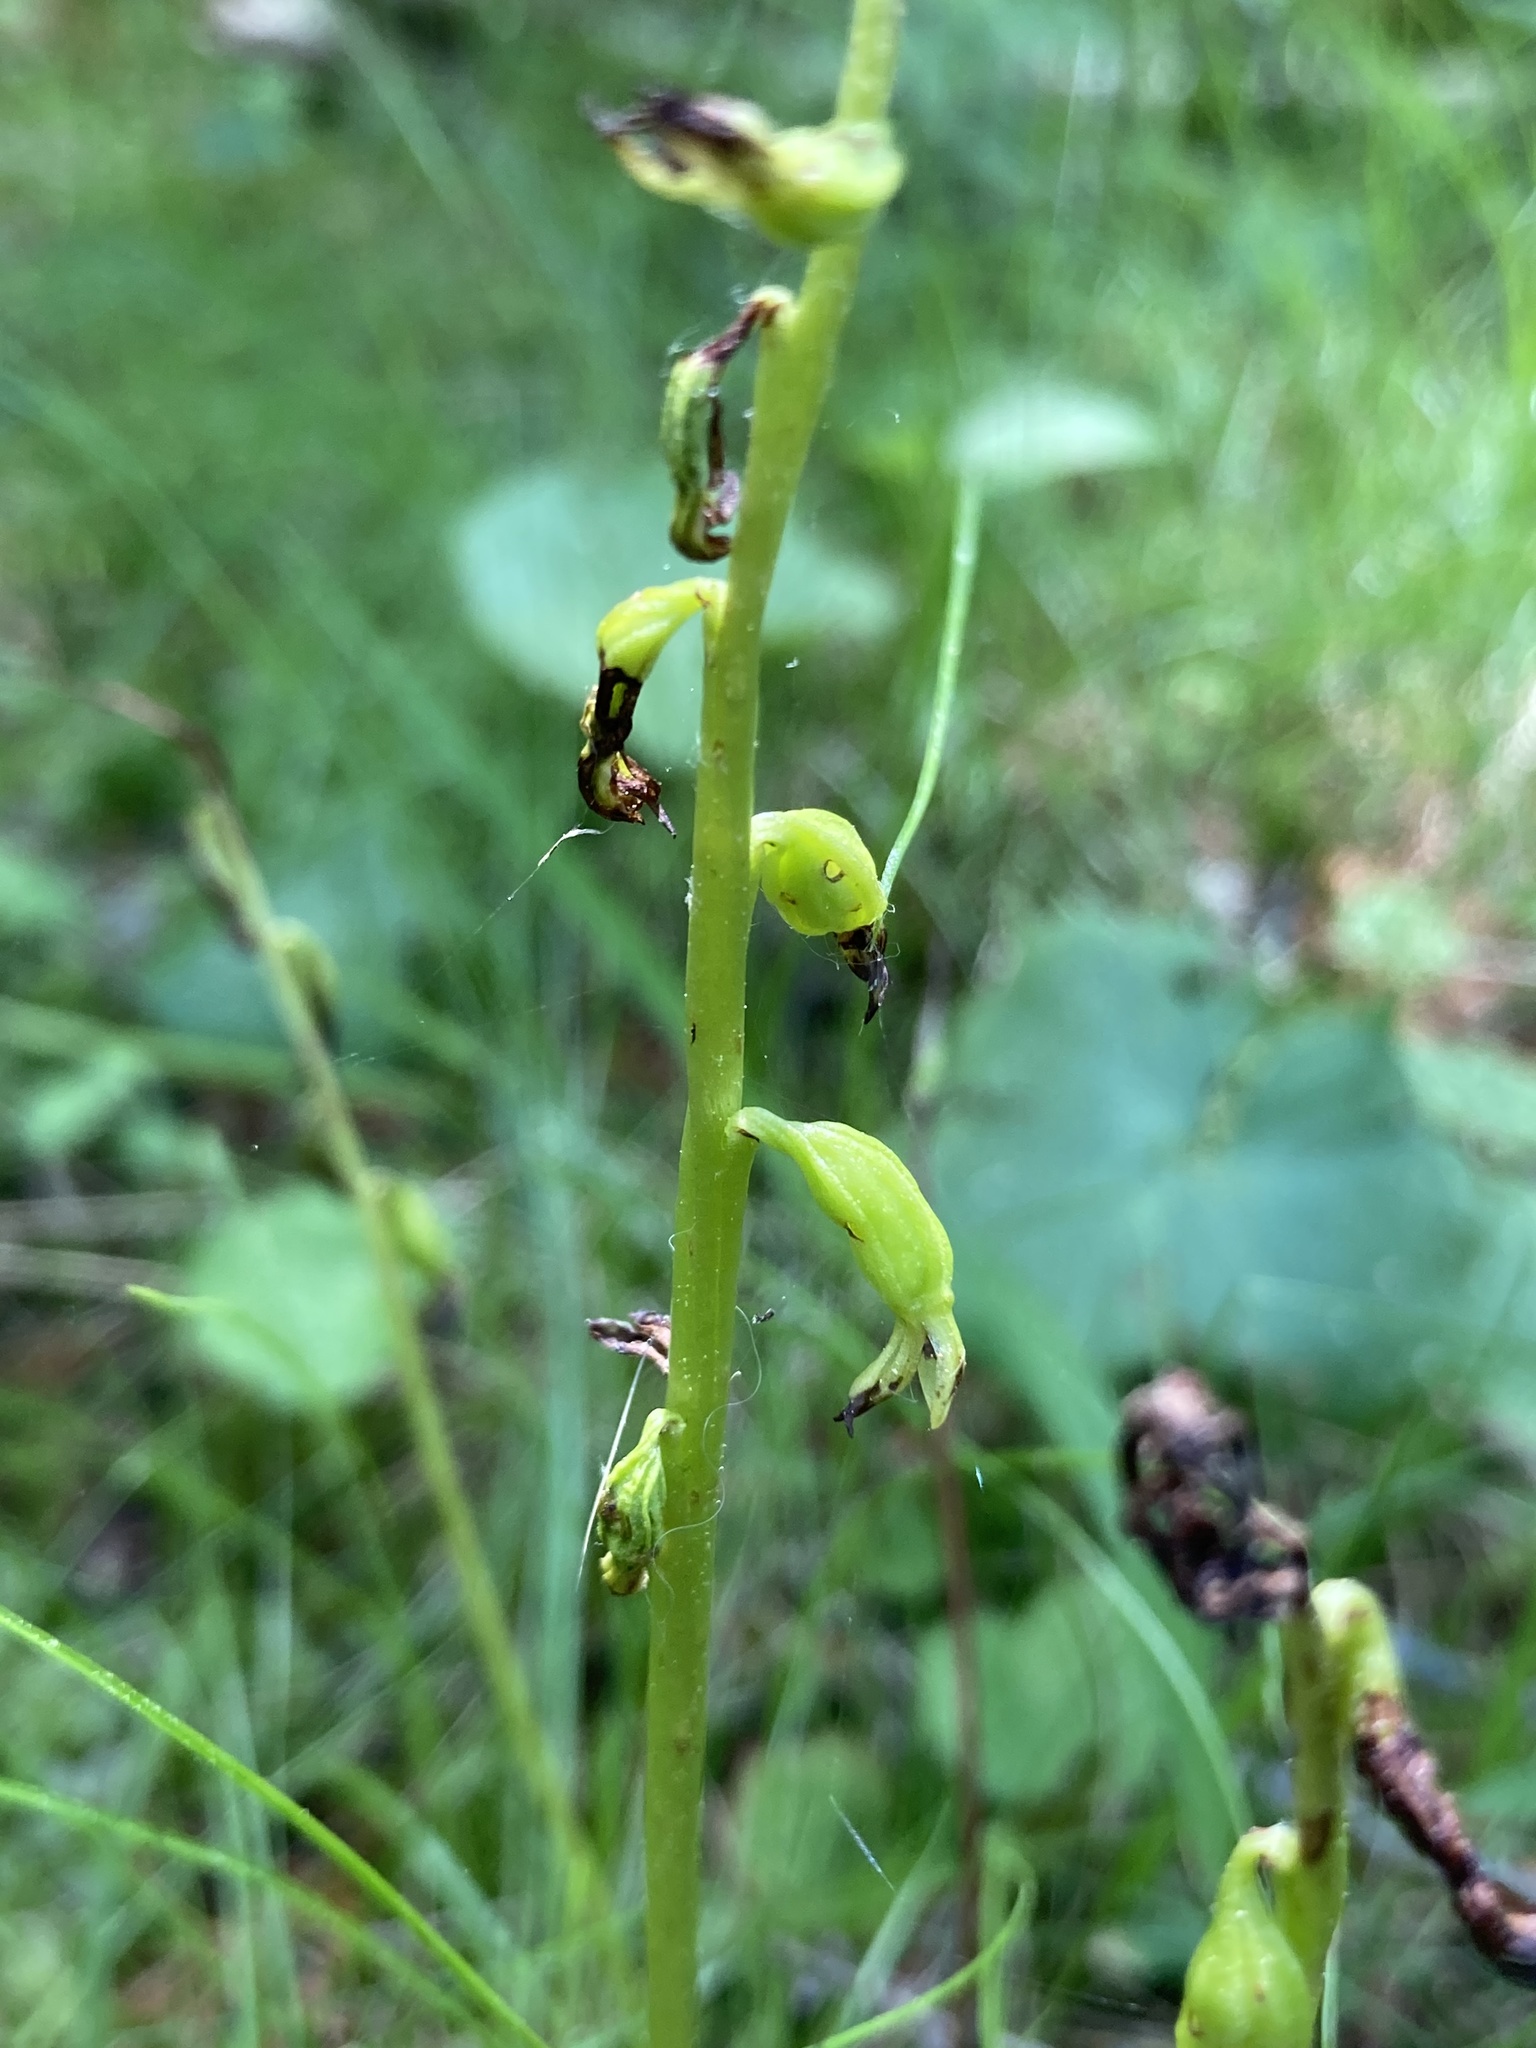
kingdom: Plantae
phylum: Tracheophyta
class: Liliopsida
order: Asparagales
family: Orchidaceae
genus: Corallorhiza
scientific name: Corallorhiza trifida
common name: Yellow coralroot
